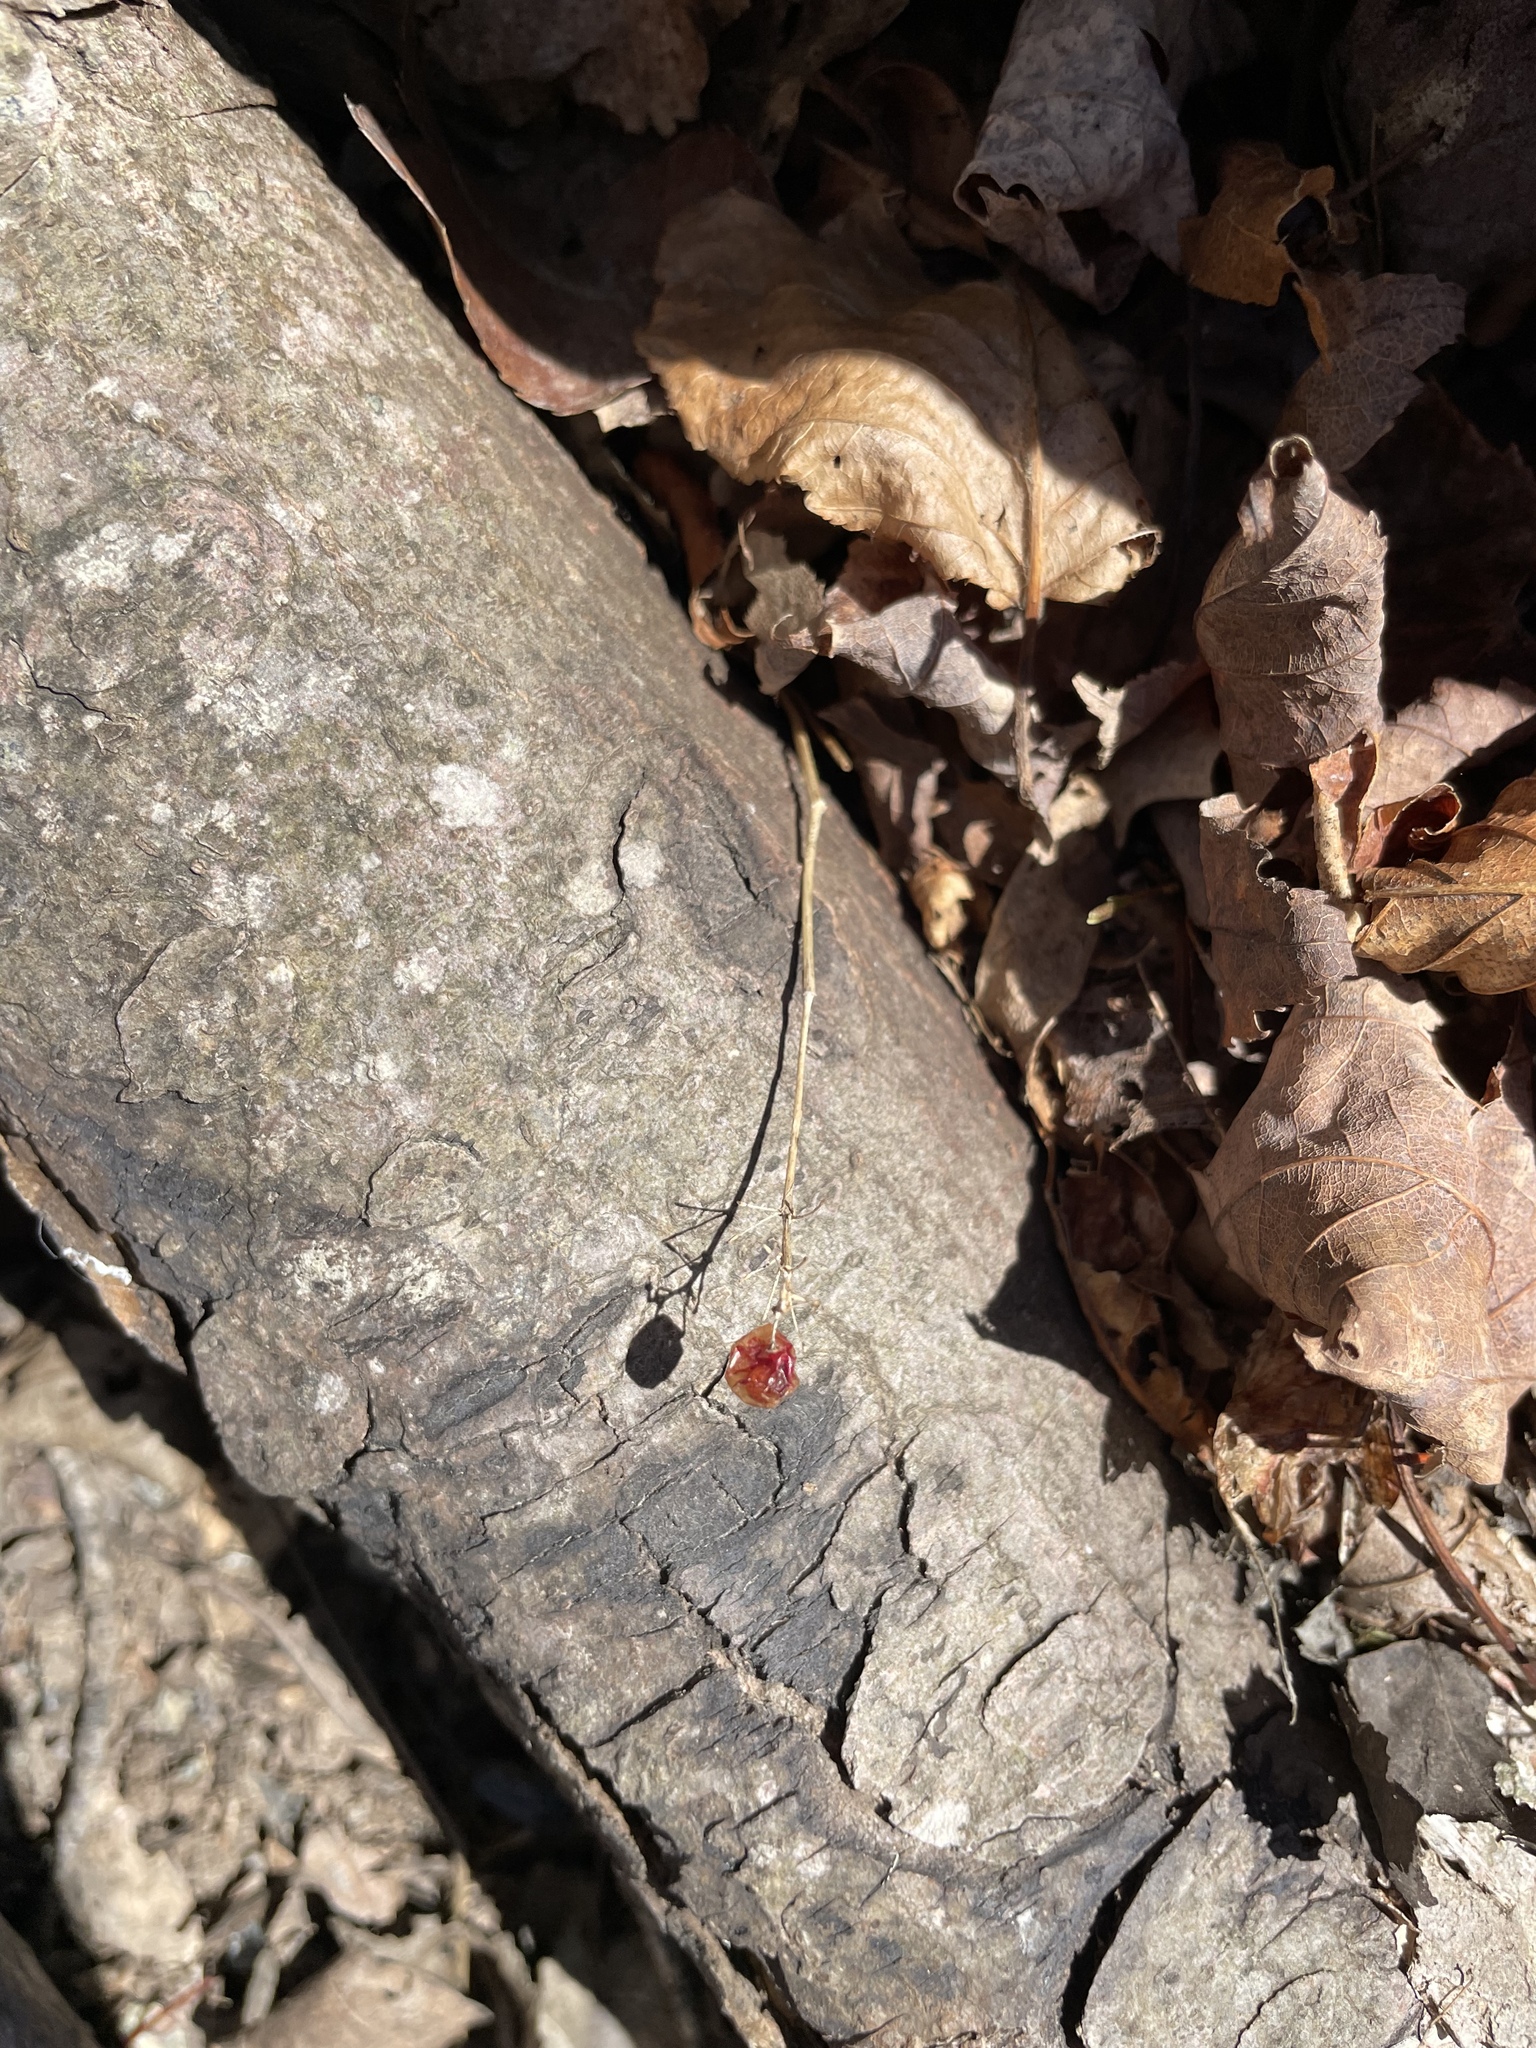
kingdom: Plantae
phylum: Tracheophyta
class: Liliopsida
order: Asparagales
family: Asparagaceae
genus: Maianthemum
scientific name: Maianthemum canadense
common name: False lily-of-the-valley
